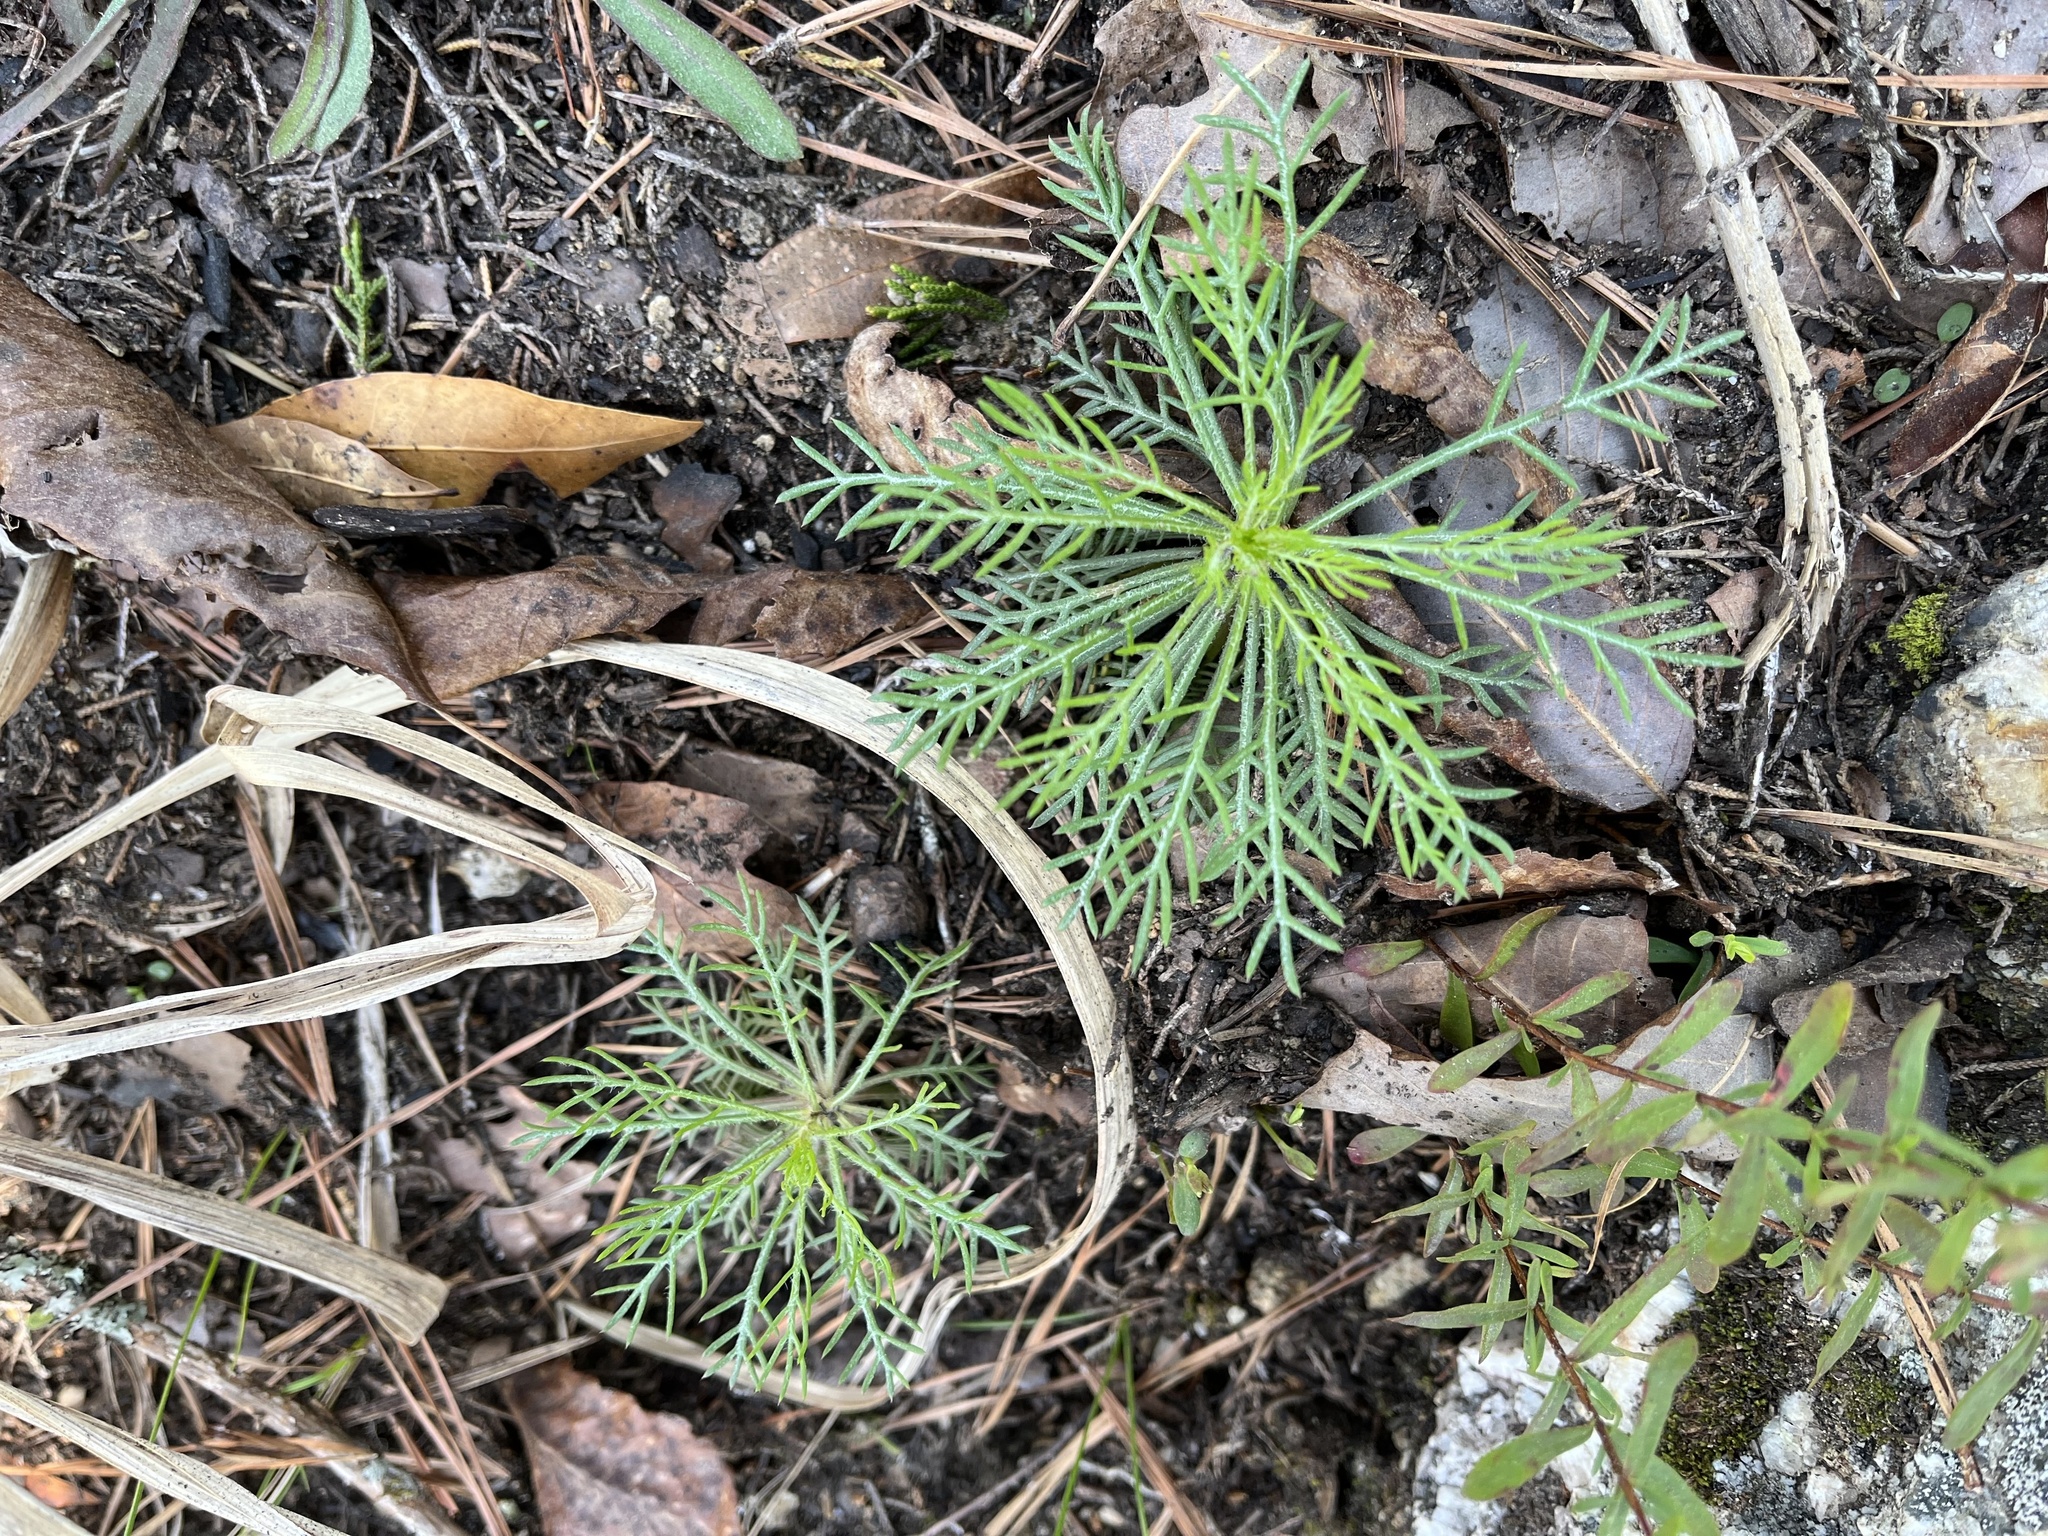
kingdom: Plantae
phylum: Tracheophyta
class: Magnoliopsida
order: Ericales
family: Polemoniaceae
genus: Ipomopsis
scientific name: Ipomopsis rubra
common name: Skyrocket
